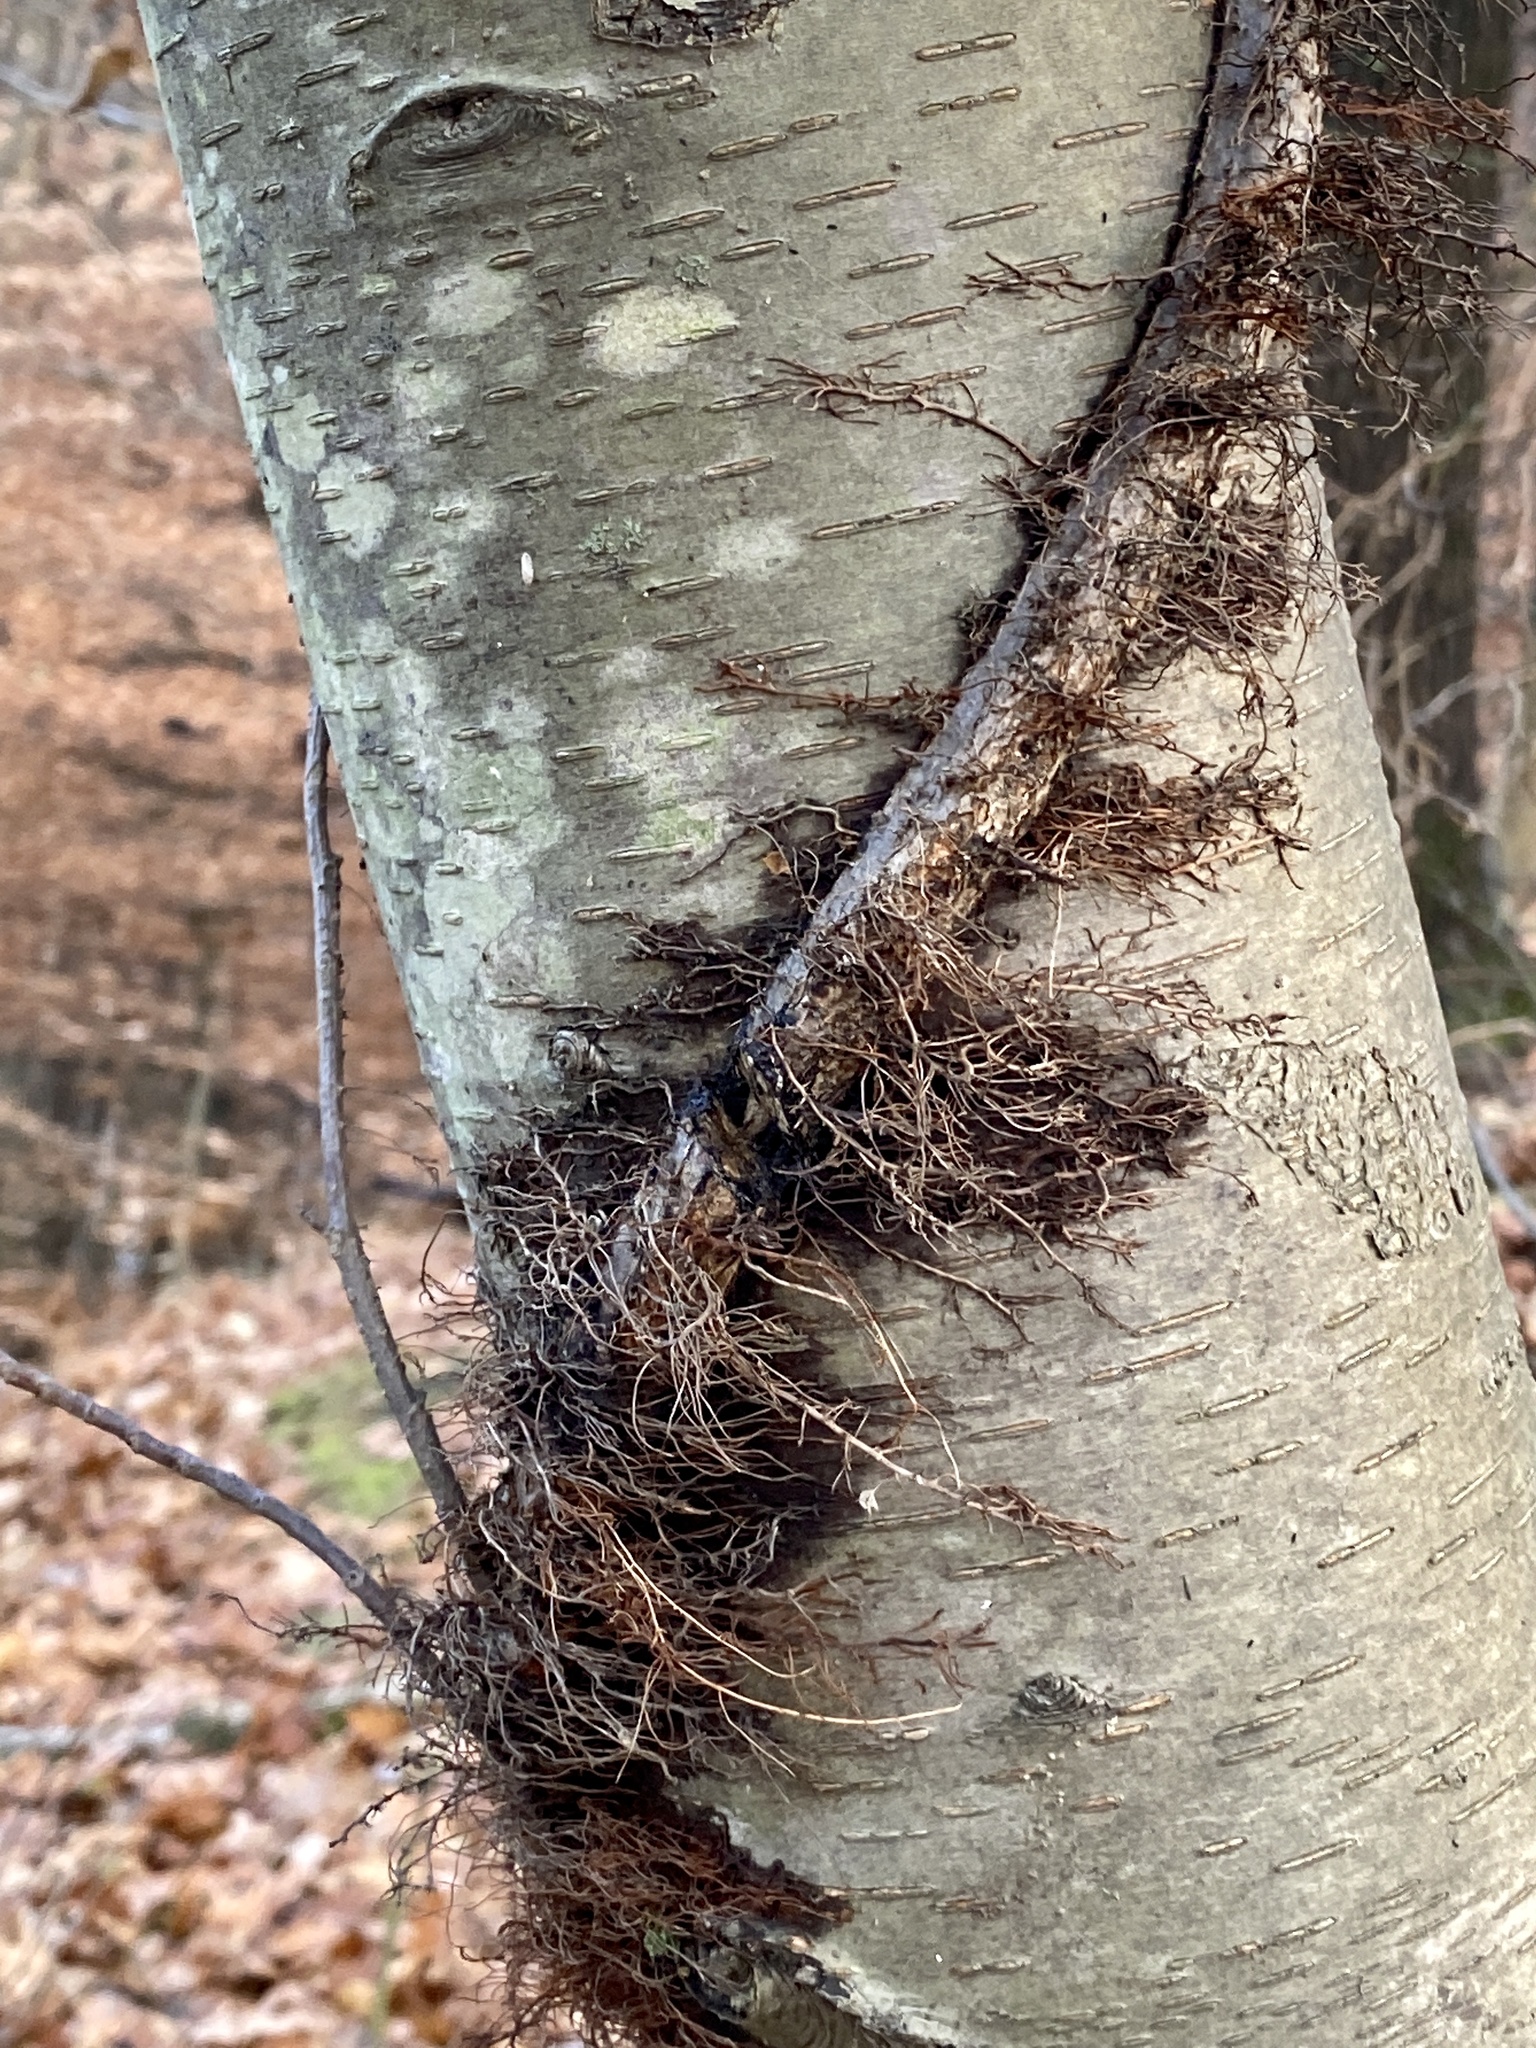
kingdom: Plantae
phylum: Tracheophyta
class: Magnoliopsida
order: Sapindales
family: Anacardiaceae
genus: Toxicodendron
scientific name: Toxicodendron radicans
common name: Poison ivy
